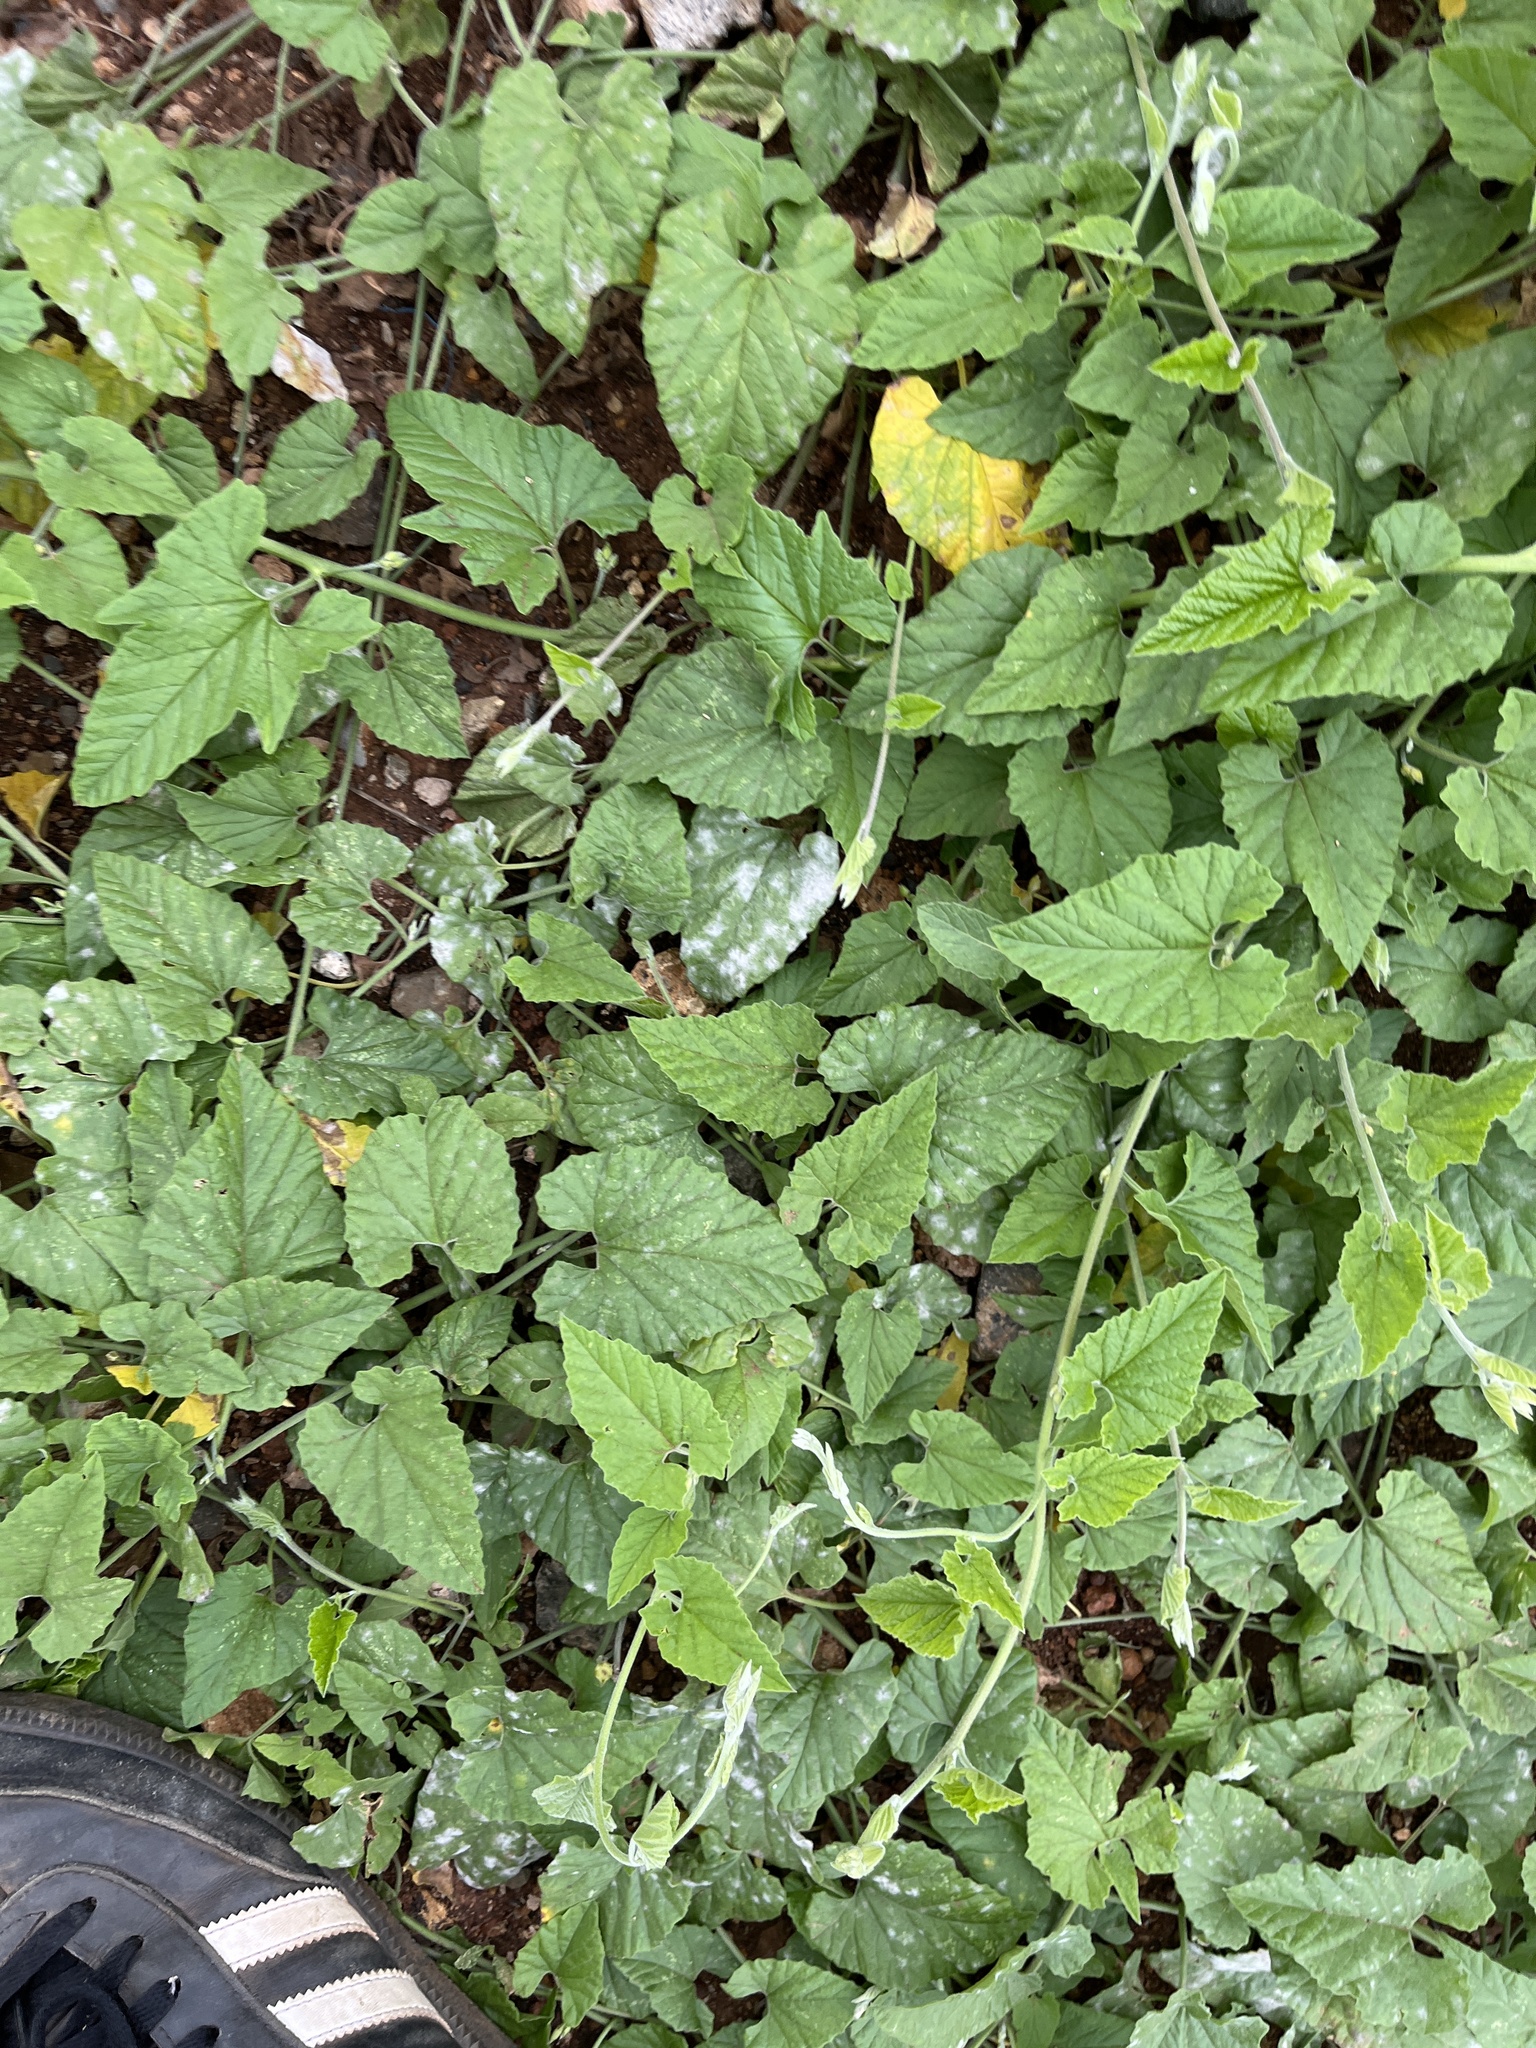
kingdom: Plantae
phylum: Tracheophyta
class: Magnoliopsida
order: Solanales
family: Convolvulaceae
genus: Convolvulus
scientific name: Convolvulus farinosus
